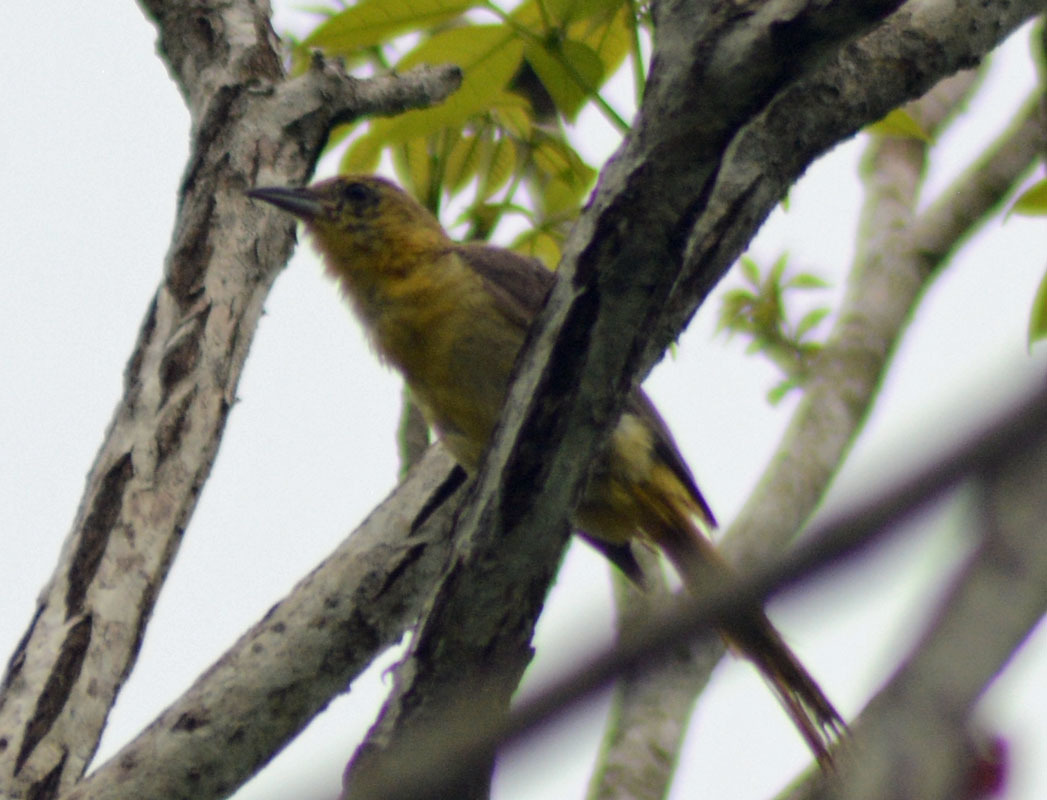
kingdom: Animalia
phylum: Chordata
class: Aves
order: Passeriformes
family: Icteridae
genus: Icterus
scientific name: Icterus cucullatus
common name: Hooded oriole
